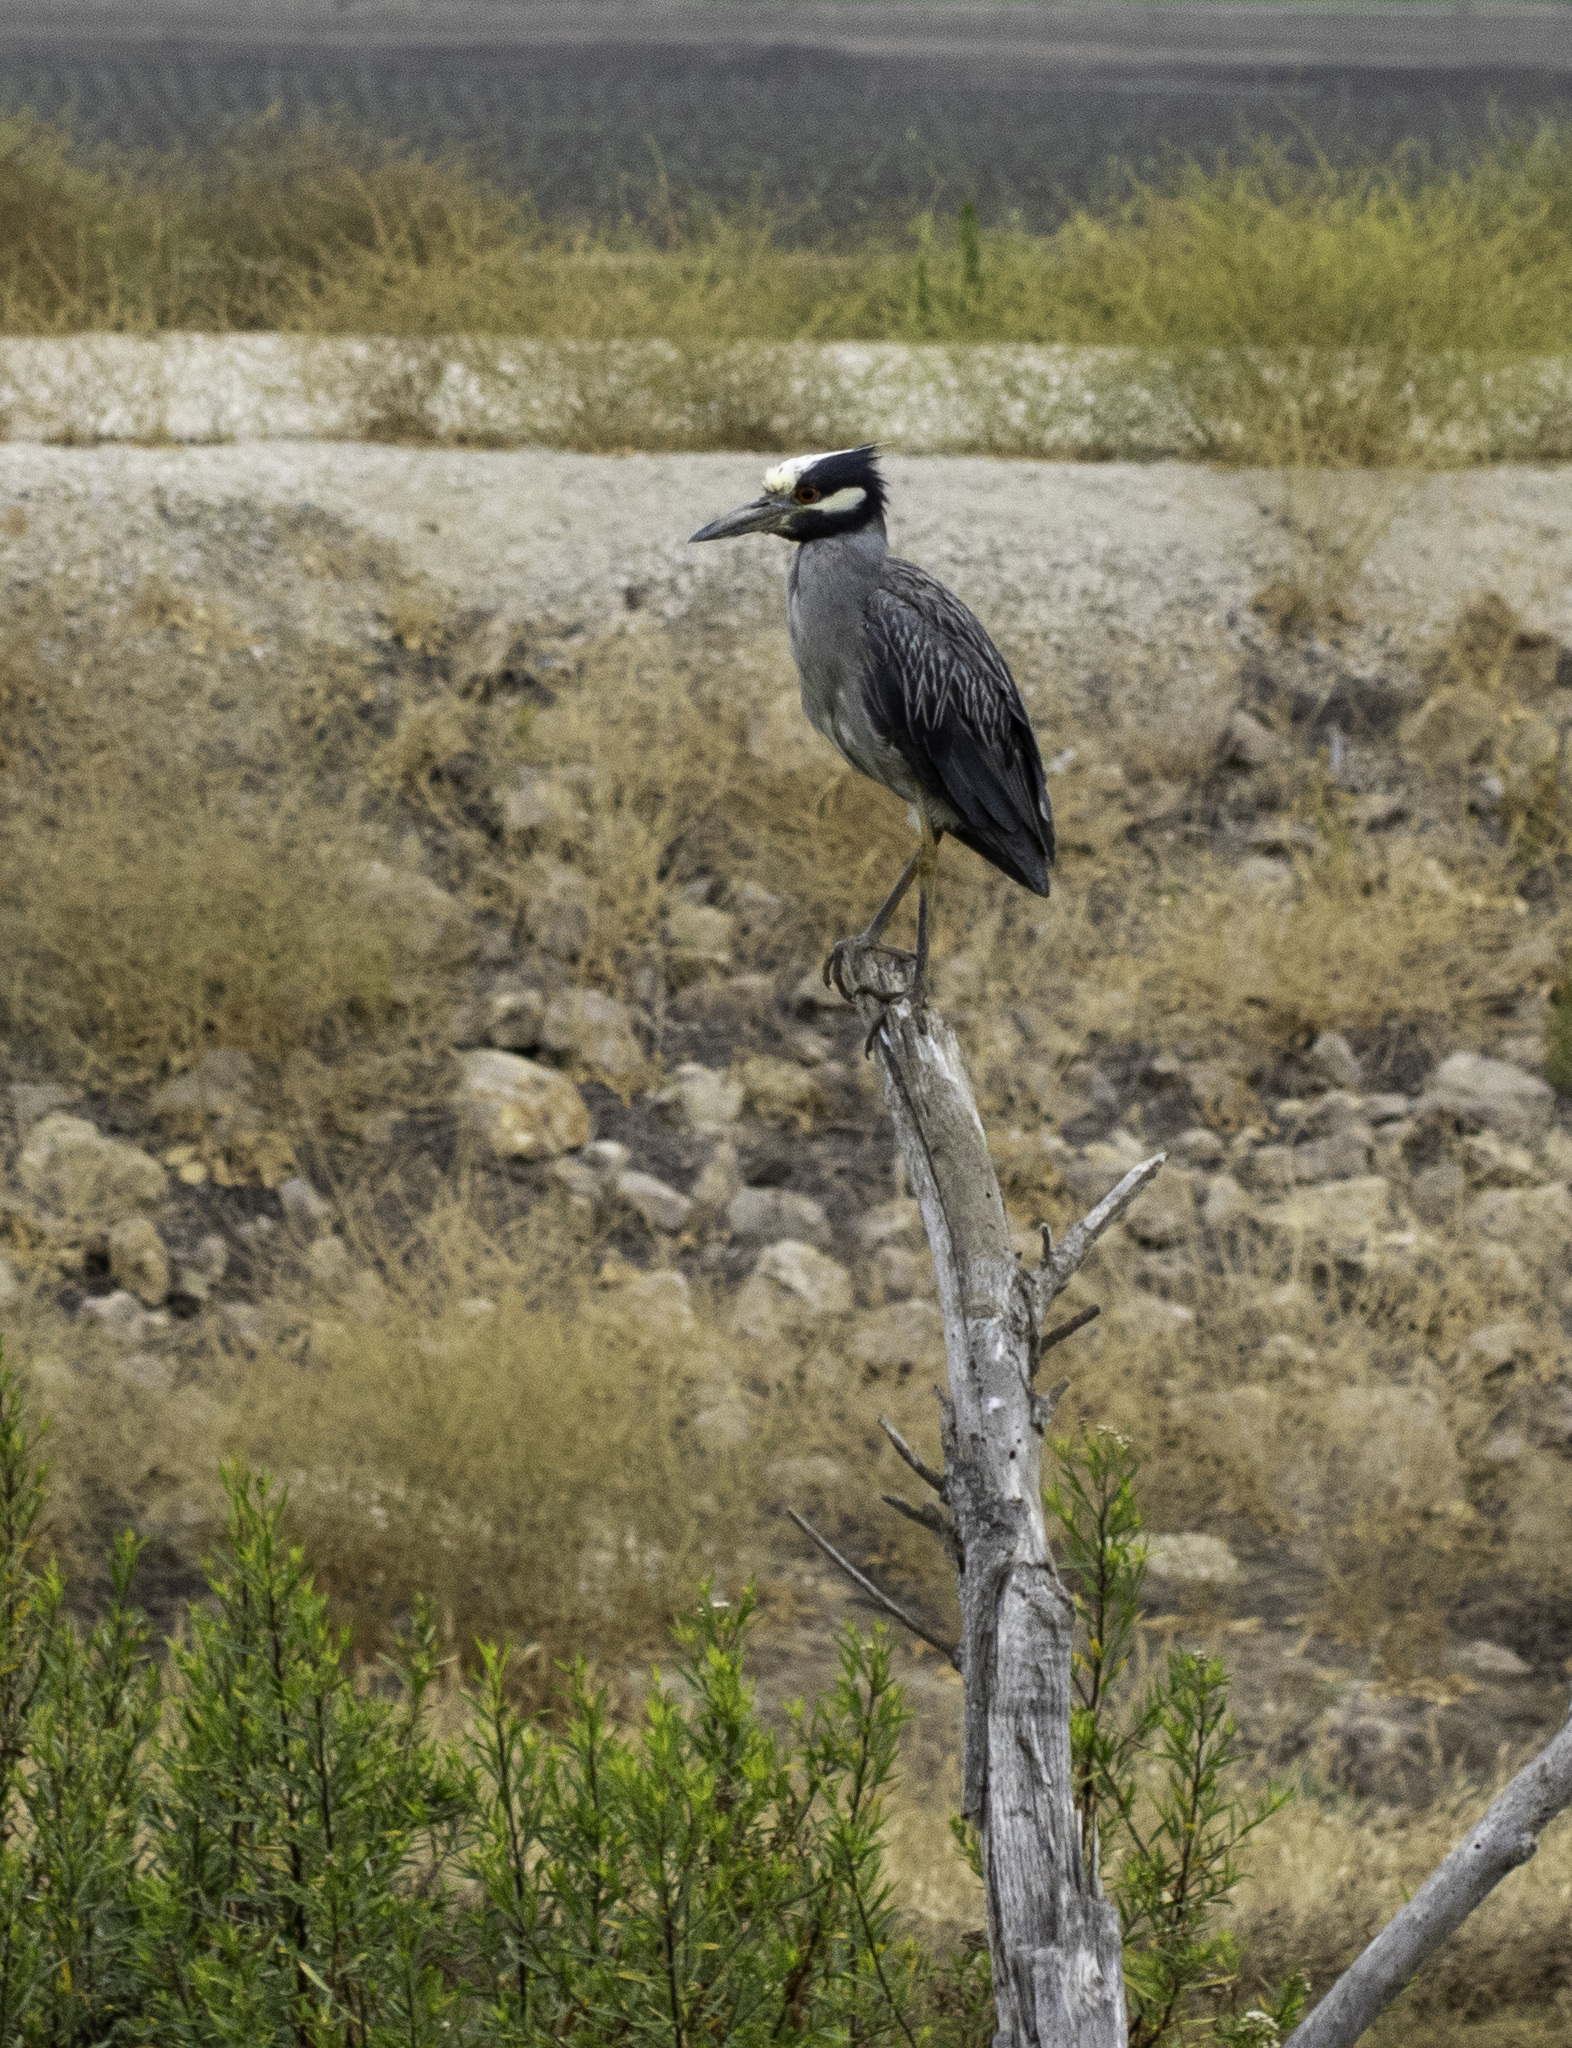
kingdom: Animalia
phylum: Chordata
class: Aves
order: Pelecaniformes
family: Ardeidae
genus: Nyctanassa
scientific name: Nyctanassa violacea
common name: Yellow-crowned night heron
